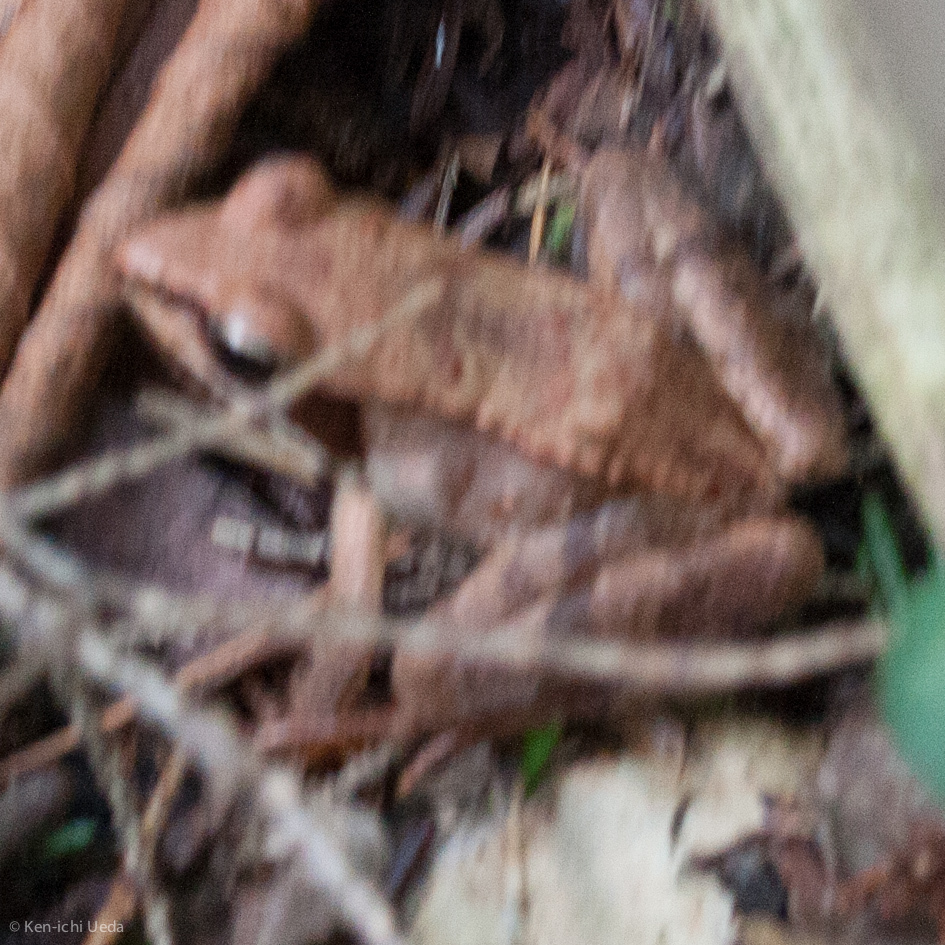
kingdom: Animalia
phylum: Chordata
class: Amphibia
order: Anura
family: Ranidae
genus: Lithobates
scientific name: Lithobates sylvaticus
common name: Wood frog
